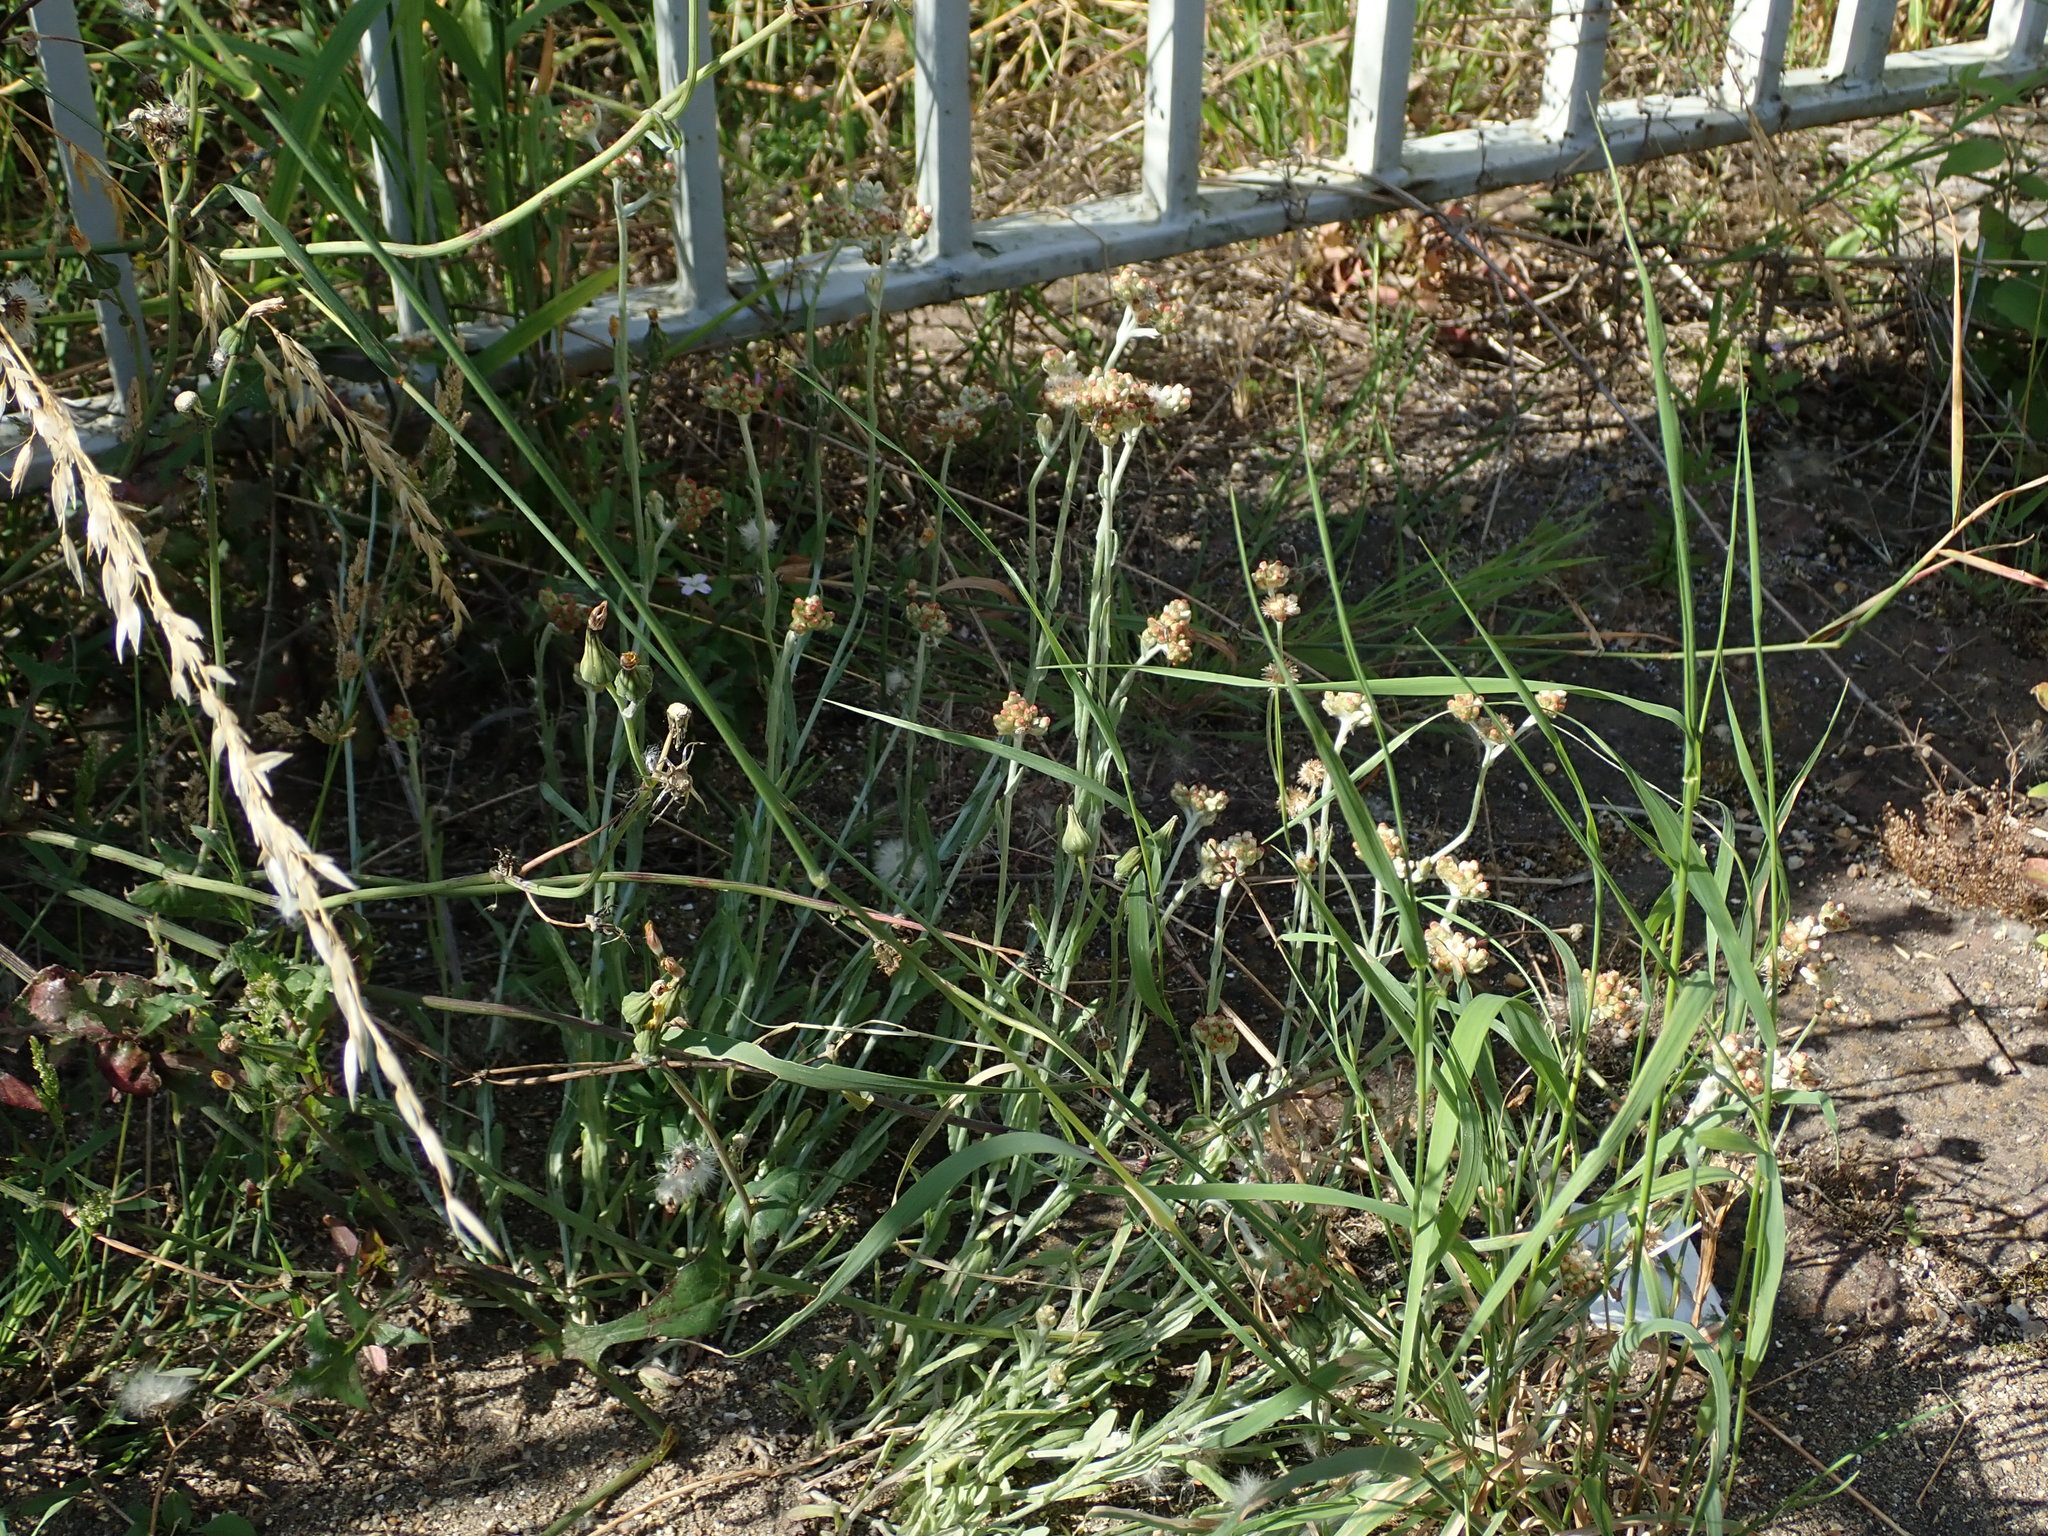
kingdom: Plantae
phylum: Tracheophyta
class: Magnoliopsida
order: Asterales
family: Asteraceae
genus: Helichrysum
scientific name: Helichrysum luteoalbum
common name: Daisy
